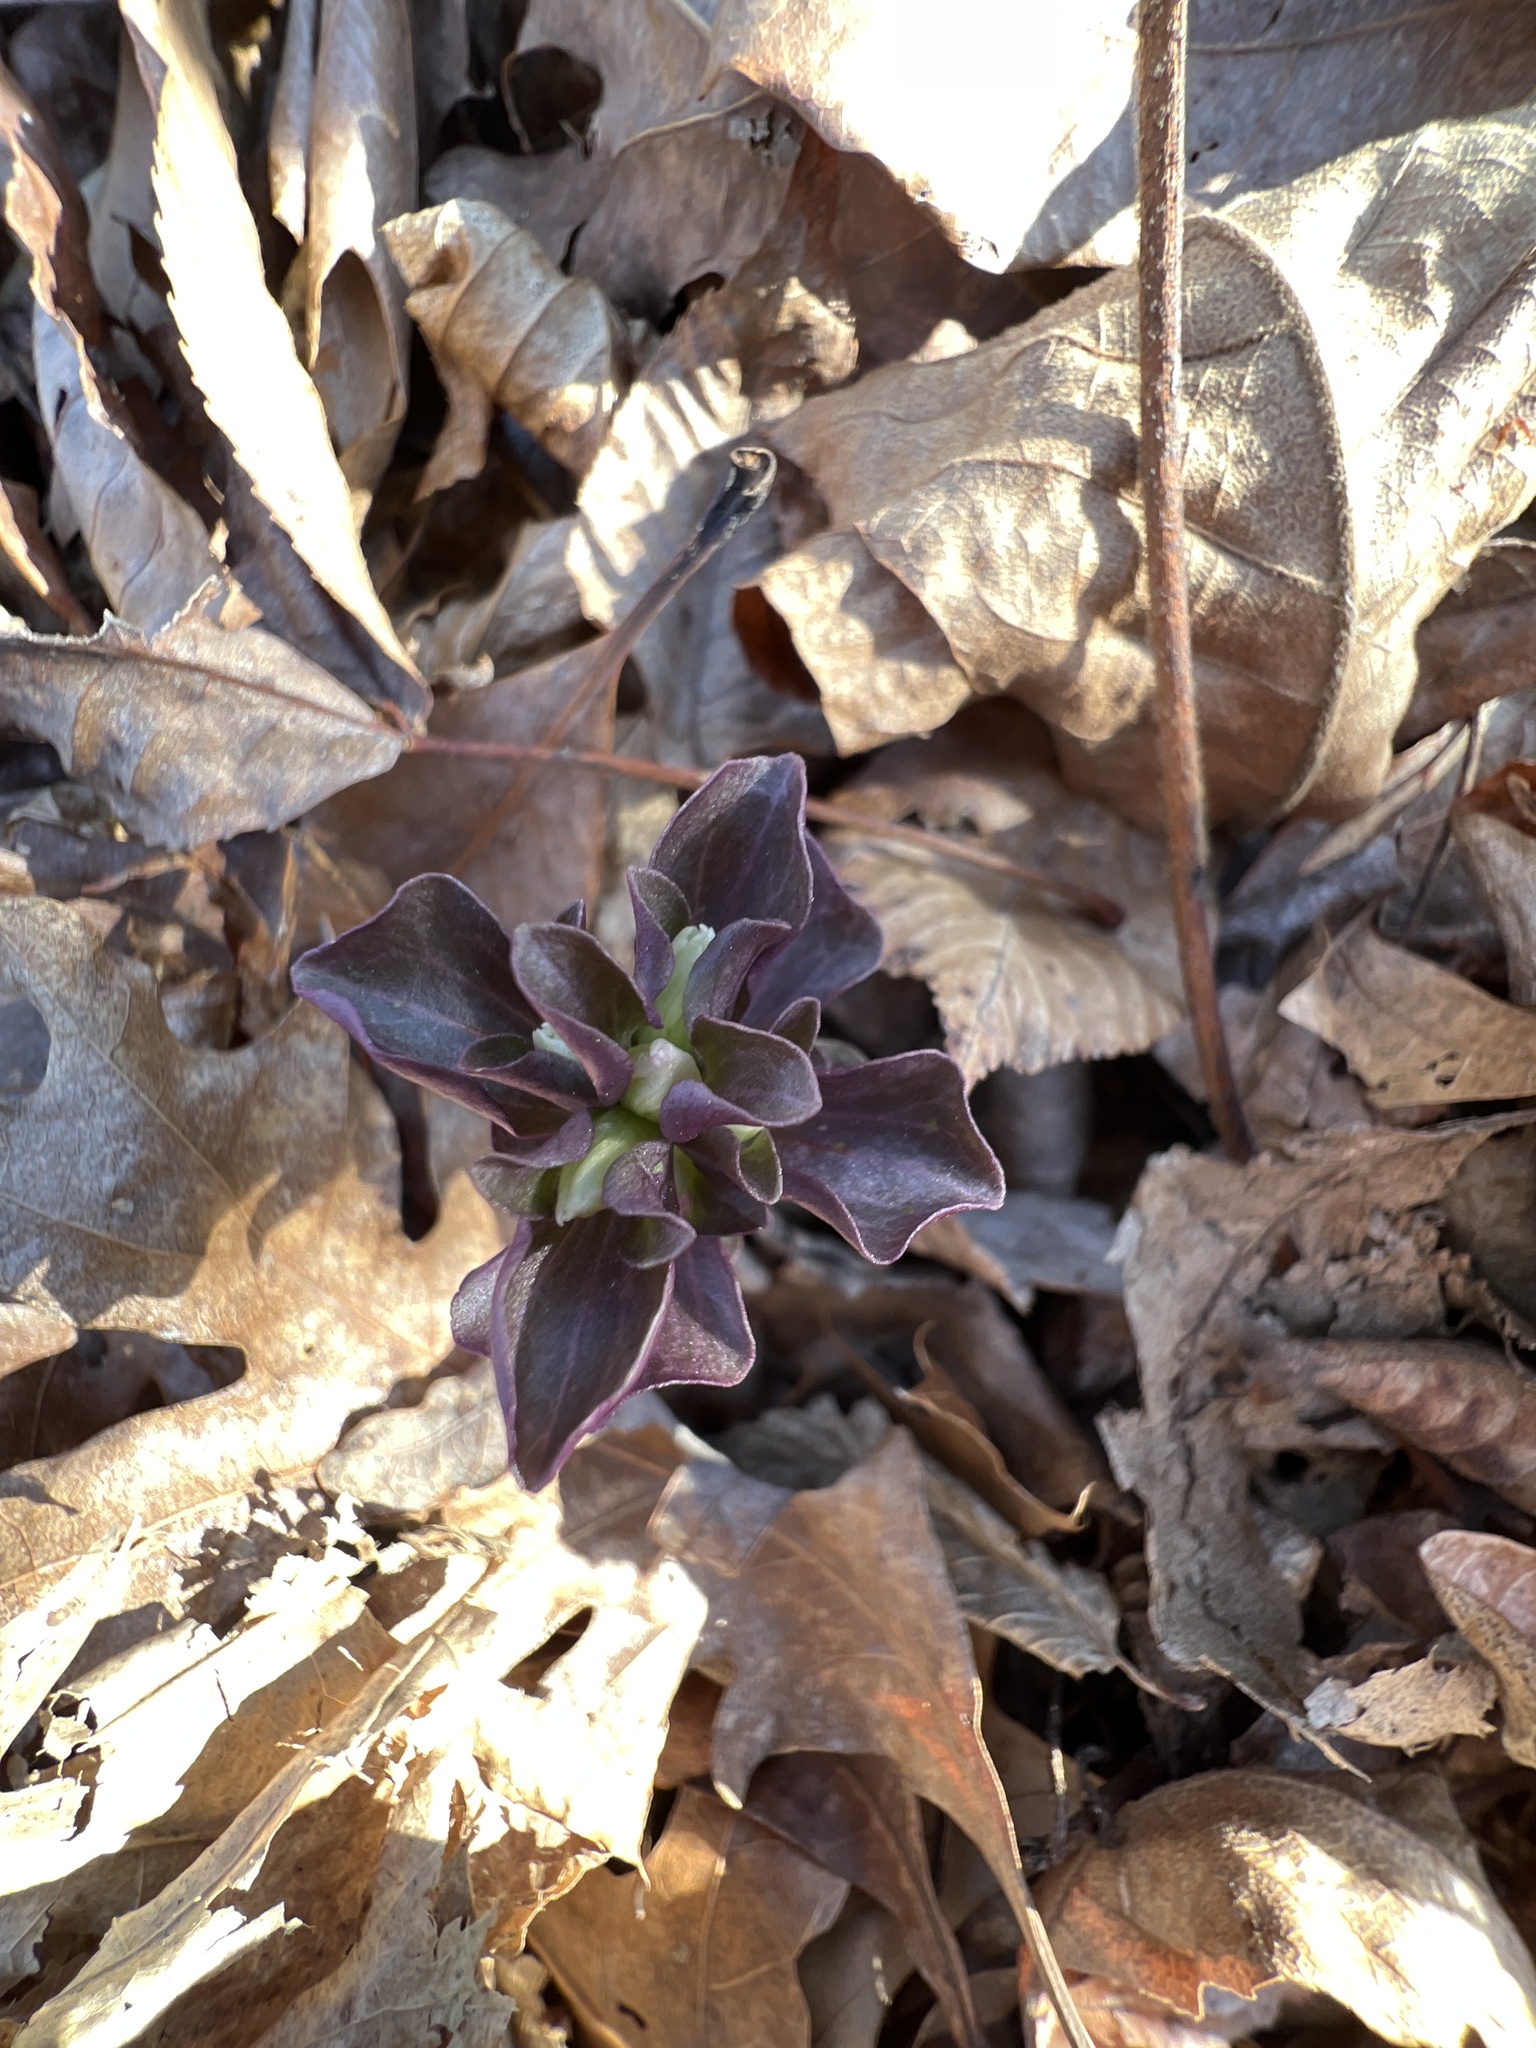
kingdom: Plantae
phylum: Tracheophyta
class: Magnoliopsida
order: Gentianales
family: Gentianaceae
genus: Obolaria
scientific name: Obolaria virginica
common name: Pennywort
